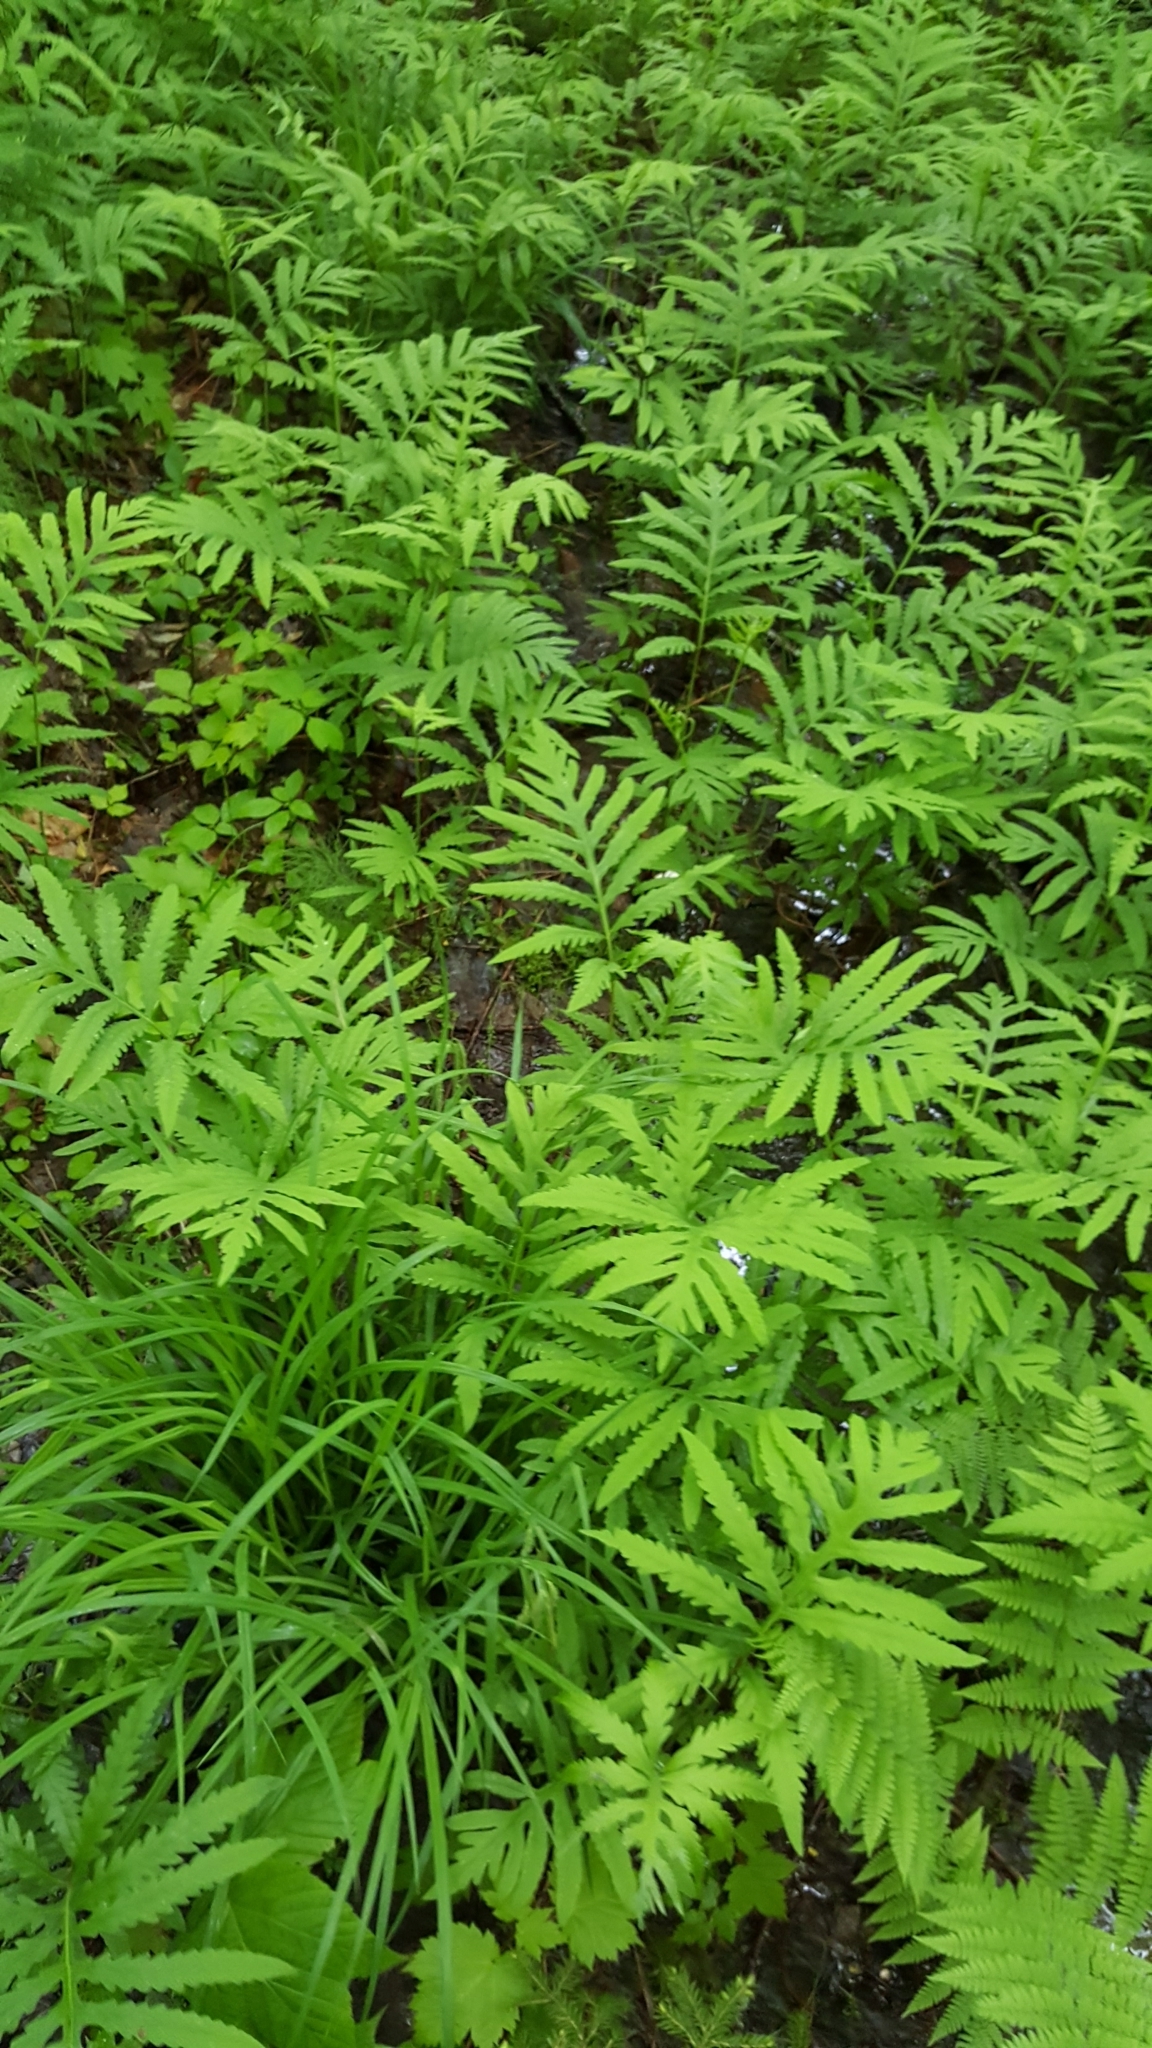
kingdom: Plantae
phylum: Tracheophyta
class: Polypodiopsida
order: Polypodiales
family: Onocleaceae
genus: Onoclea
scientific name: Onoclea sensibilis
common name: Sensitive fern
